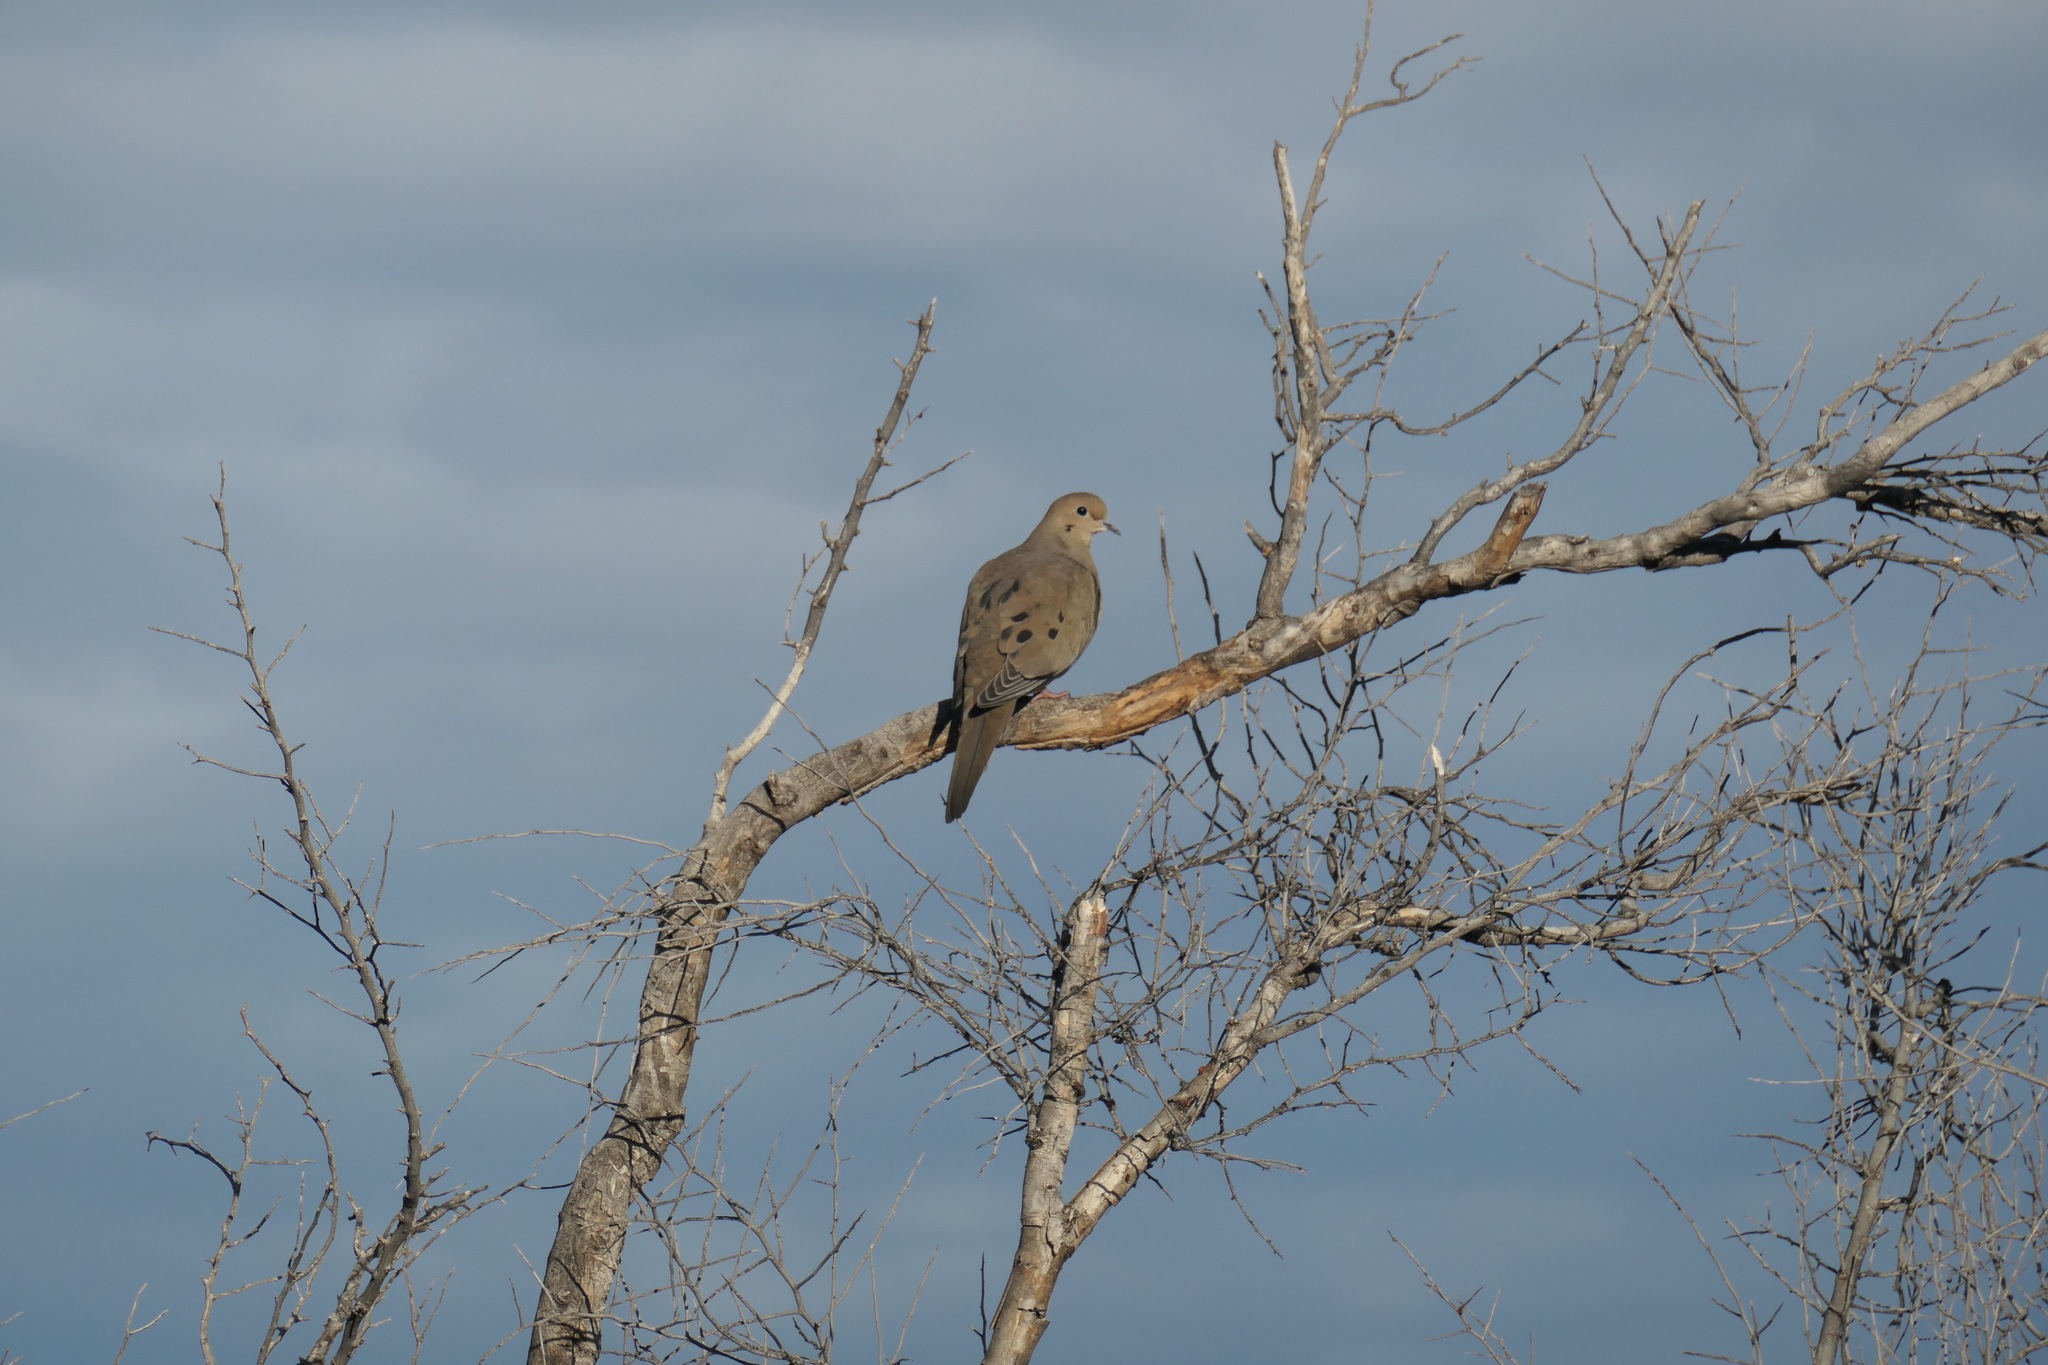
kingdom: Animalia
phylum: Chordata
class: Aves
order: Columbiformes
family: Columbidae
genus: Zenaida
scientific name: Zenaida macroura
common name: Mourning dove
